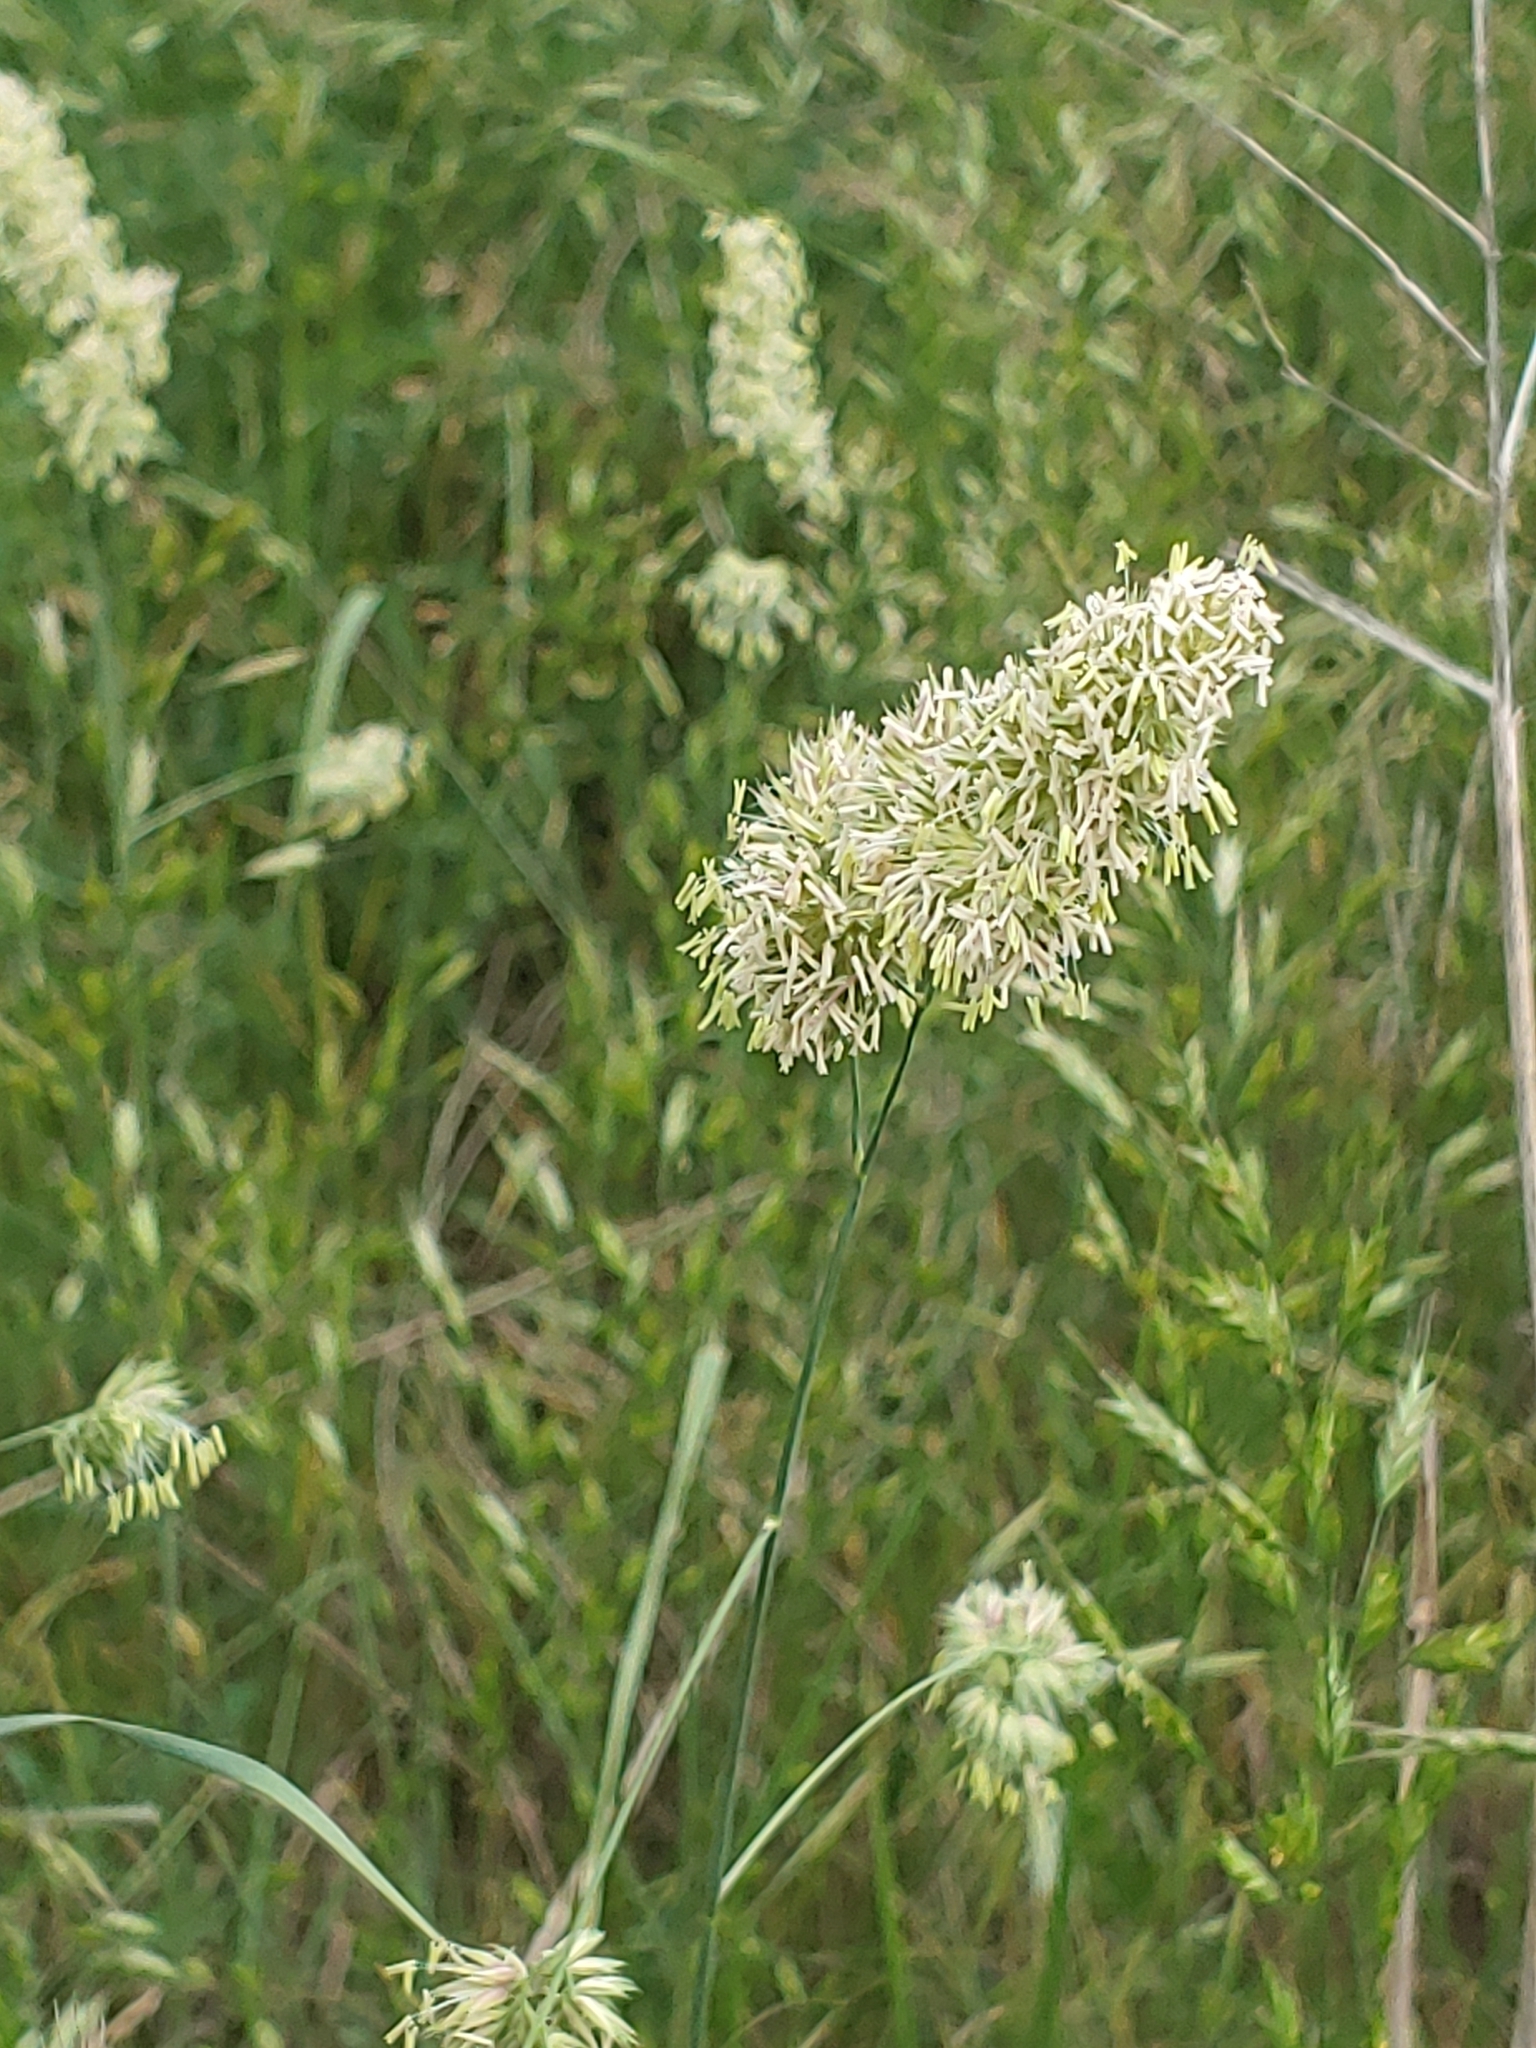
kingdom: Plantae
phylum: Tracheophyta
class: Liliopsida
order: Poales
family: Poaceae
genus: Dactylis
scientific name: Dactylis glomerata
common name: Orchardgrass
